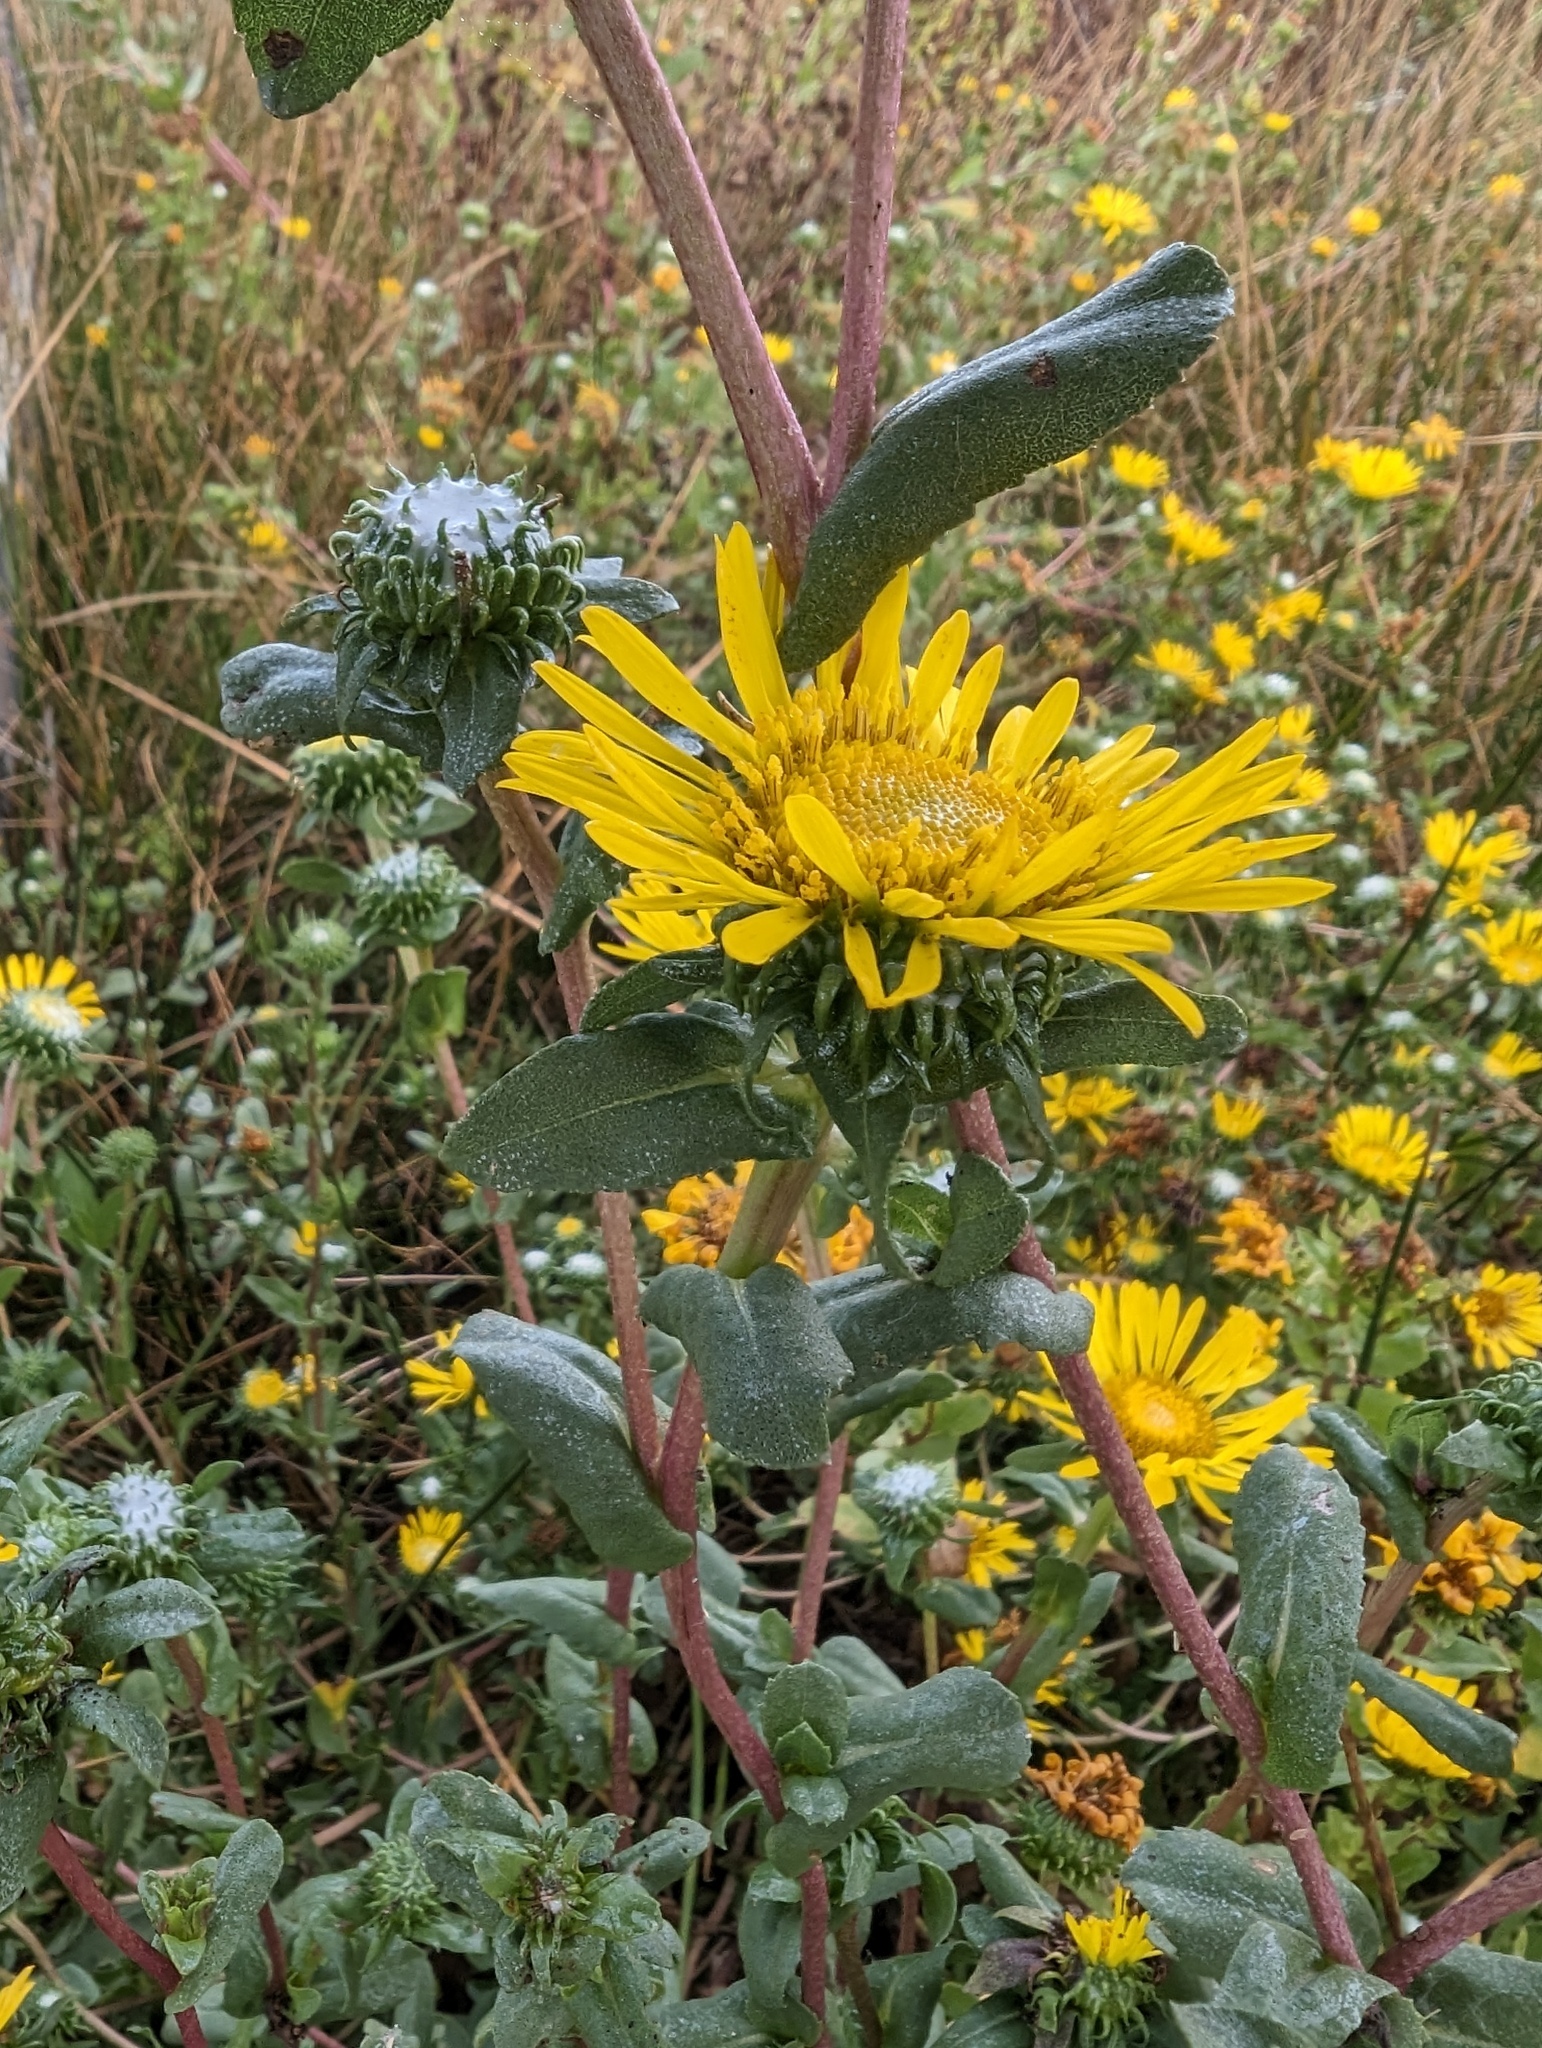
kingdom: Plantae
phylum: Tracheophyta
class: Magnoliopsida
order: Asterales
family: Asteraceae
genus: Grindelia
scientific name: Grindelia hirsutula
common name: Hairy gumweed
